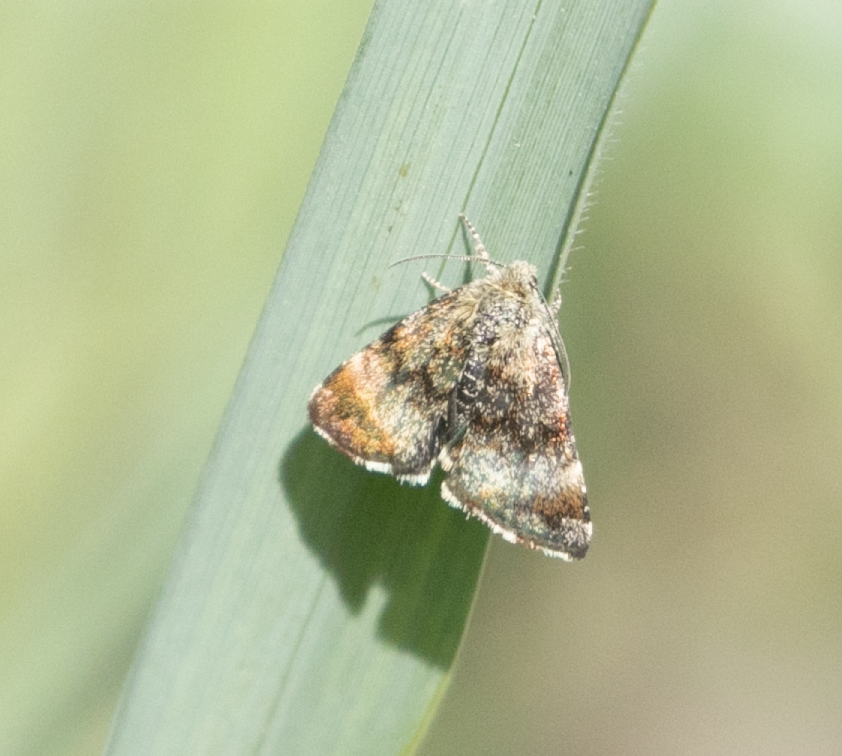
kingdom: Animalia
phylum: Arthropoda
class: Insecta
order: Lepidoptera
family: Noctuidae
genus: Panemeria
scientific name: Panemeria tenebrata
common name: Small yellow underwing
